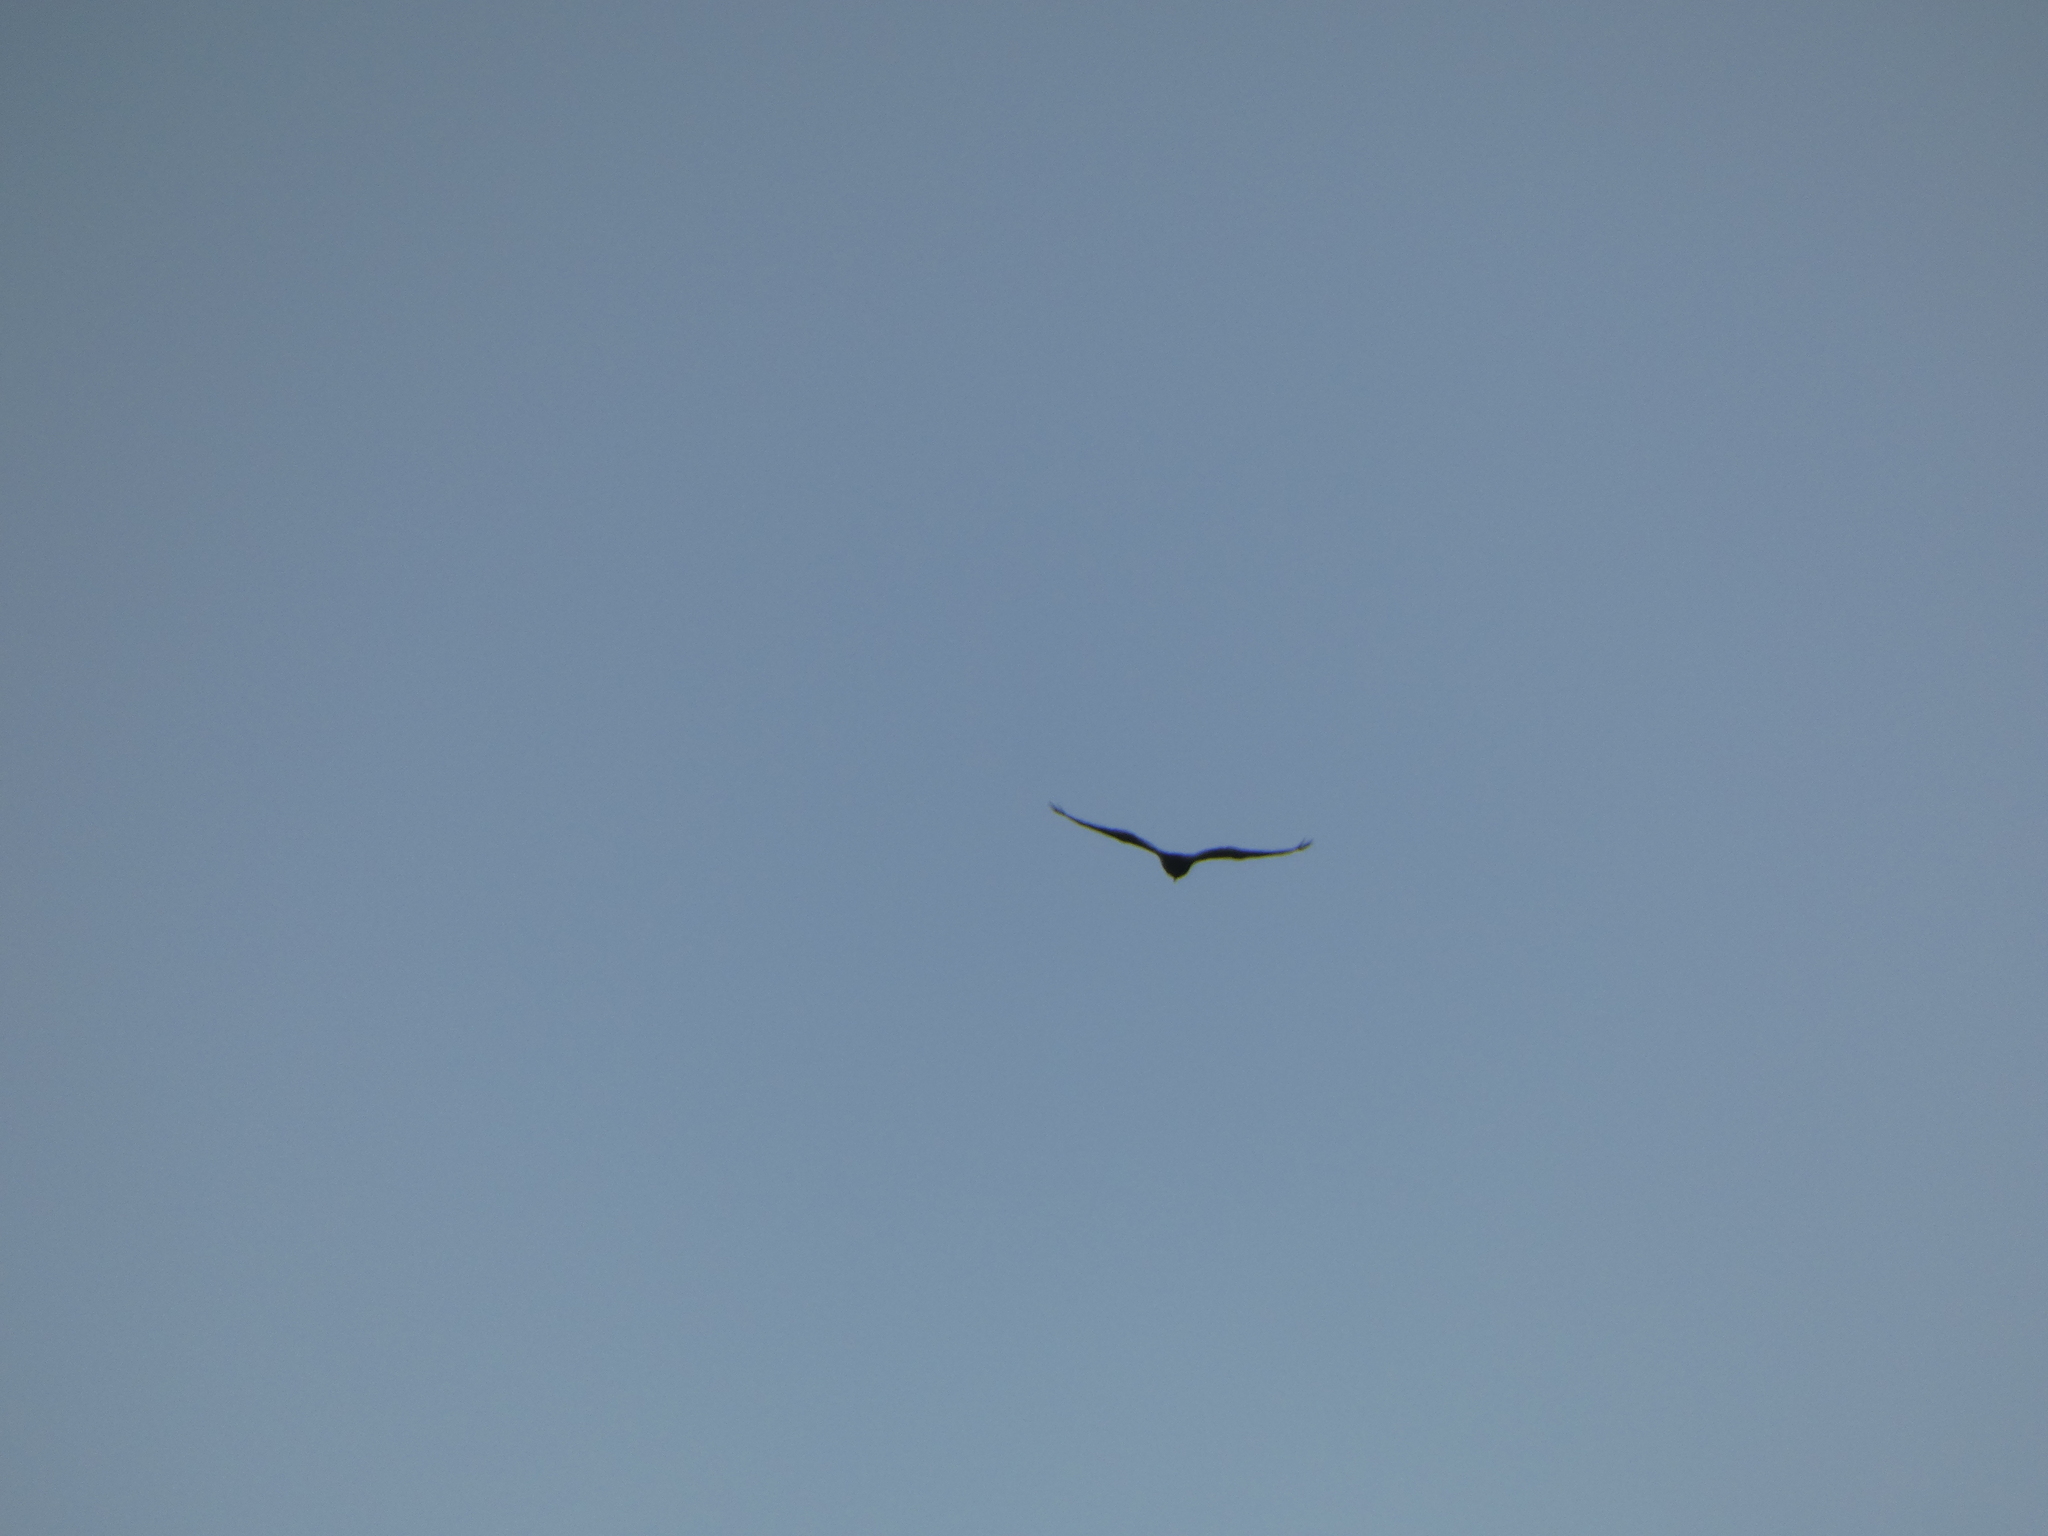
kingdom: Animalia
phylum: Chordata
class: Aves
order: Accipitriformes
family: Cathartidae
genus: Cathartes
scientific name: Cathartes aura
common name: Turkey vulture
